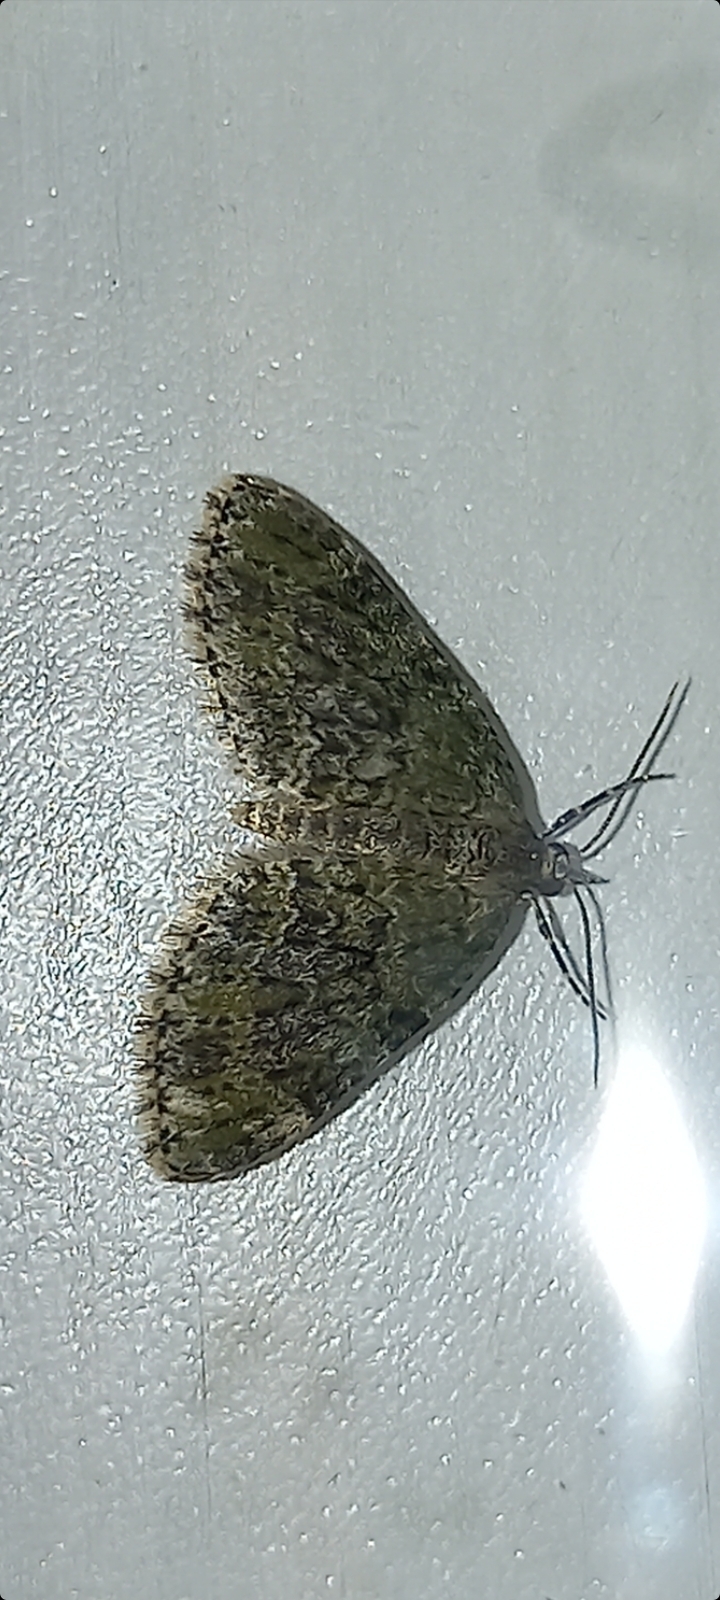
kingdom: Animalia
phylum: Arthropoda
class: Insecta
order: Lepidoptera
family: Geometridae
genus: Acasis
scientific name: Acasis viretata
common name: Yellow-barred brindle
